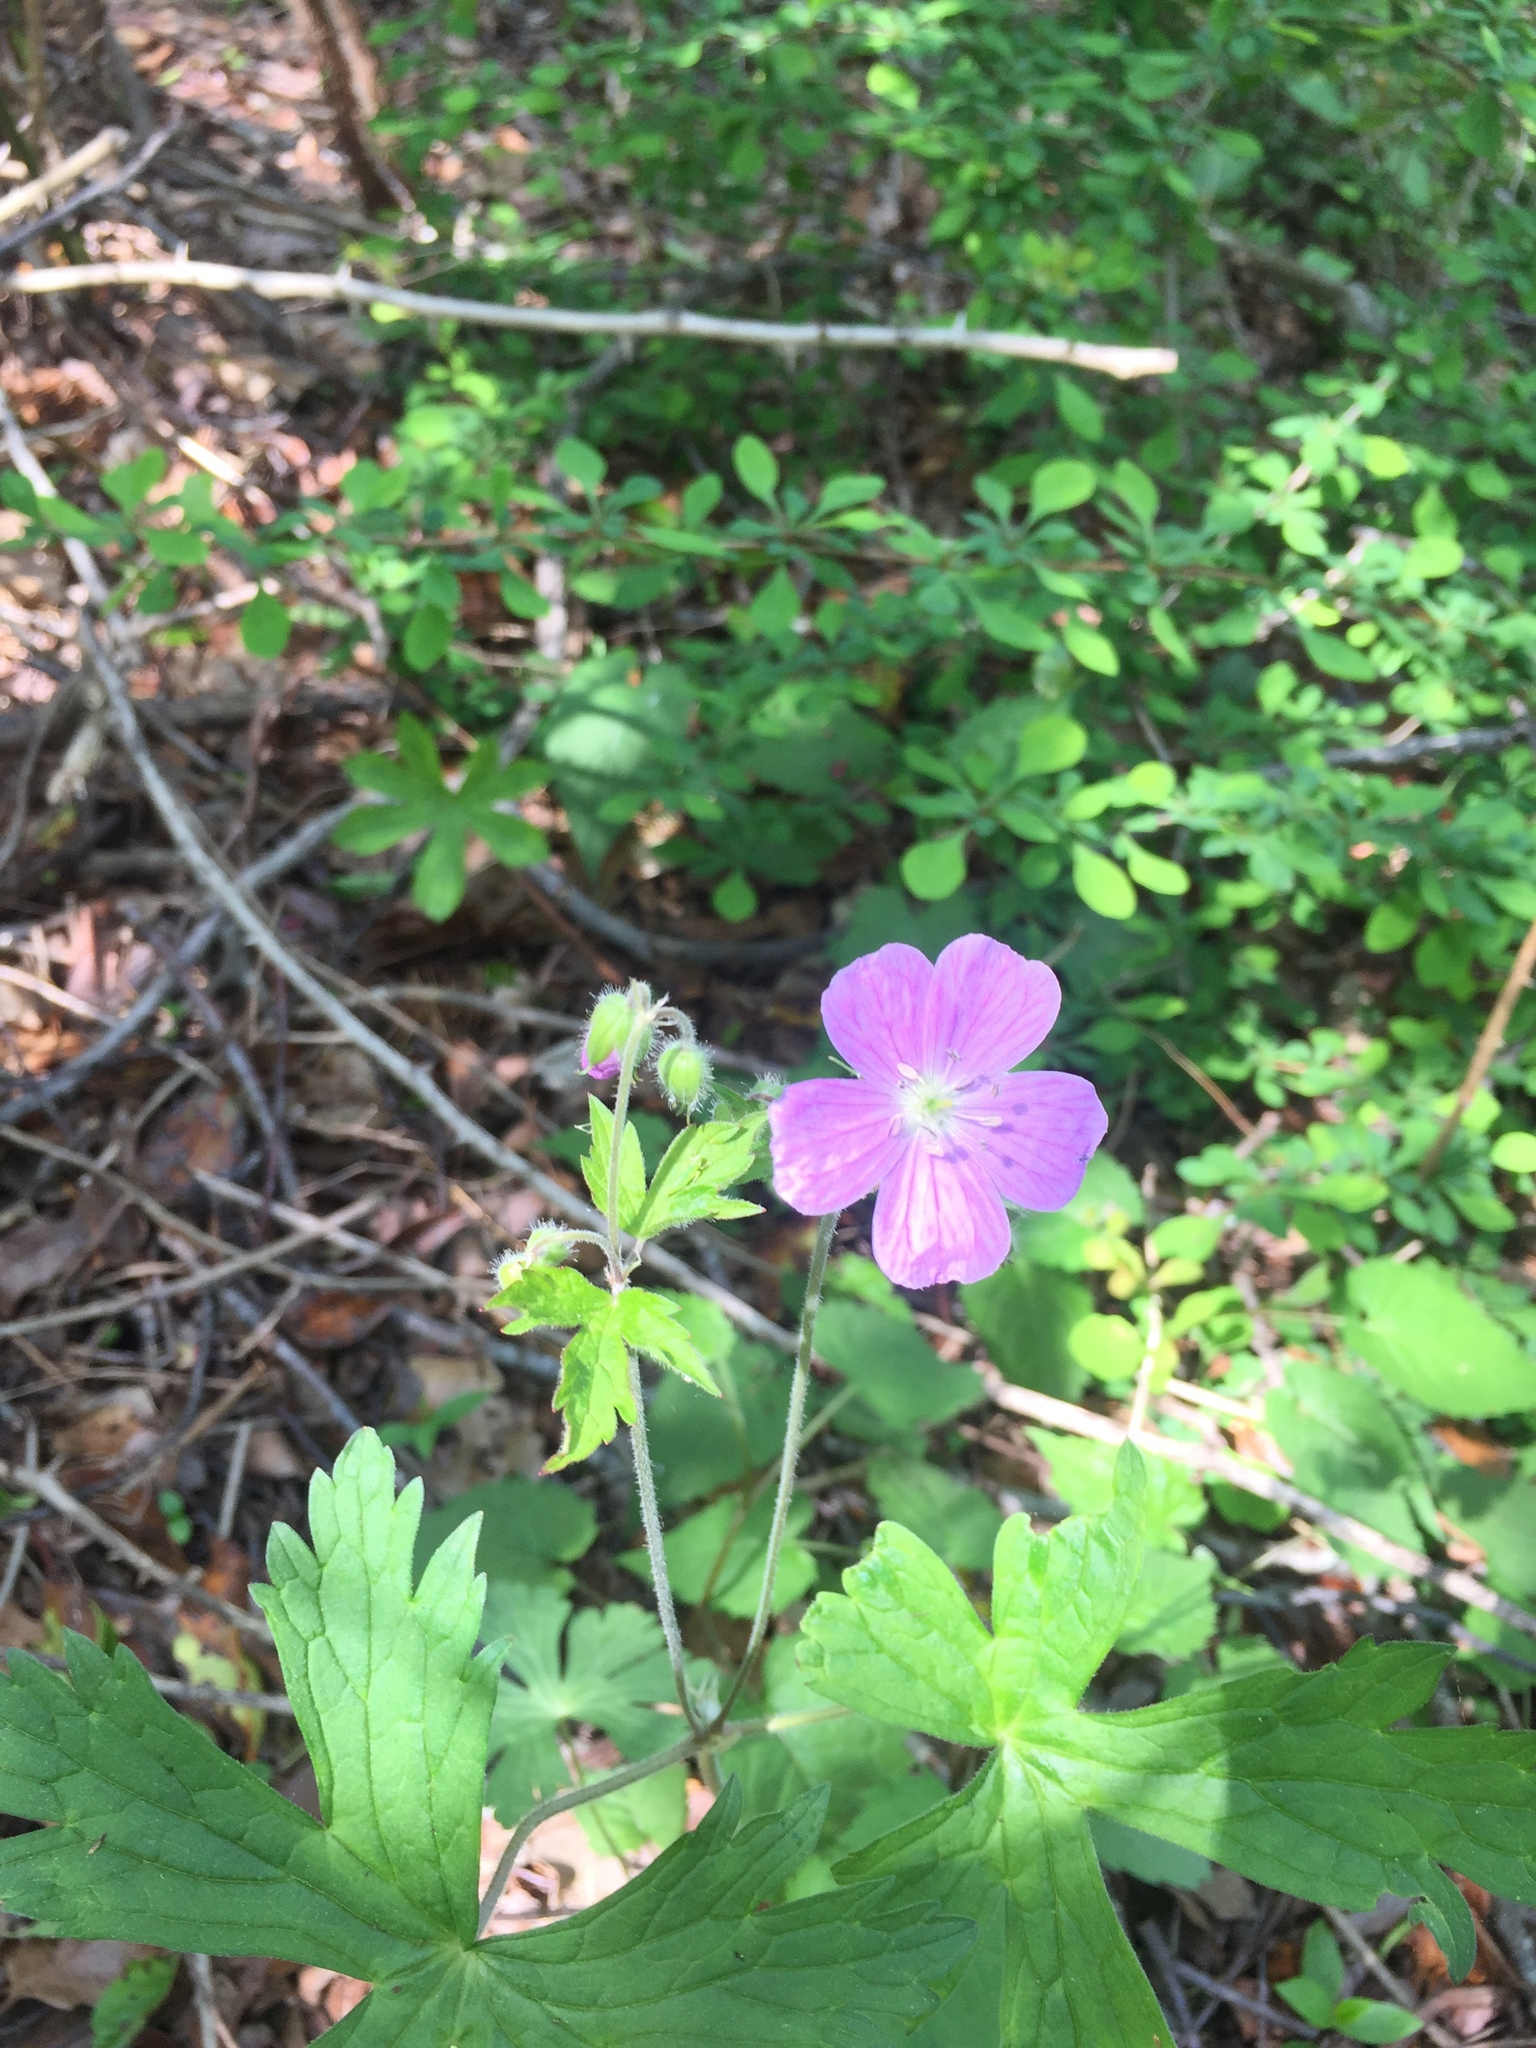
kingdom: Plantae
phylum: Tracheophyta
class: Magnoliopsida
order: Geraniales
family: Geraniaceae
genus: Geranium
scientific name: Geranium maculatum
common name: Spotted geranium
